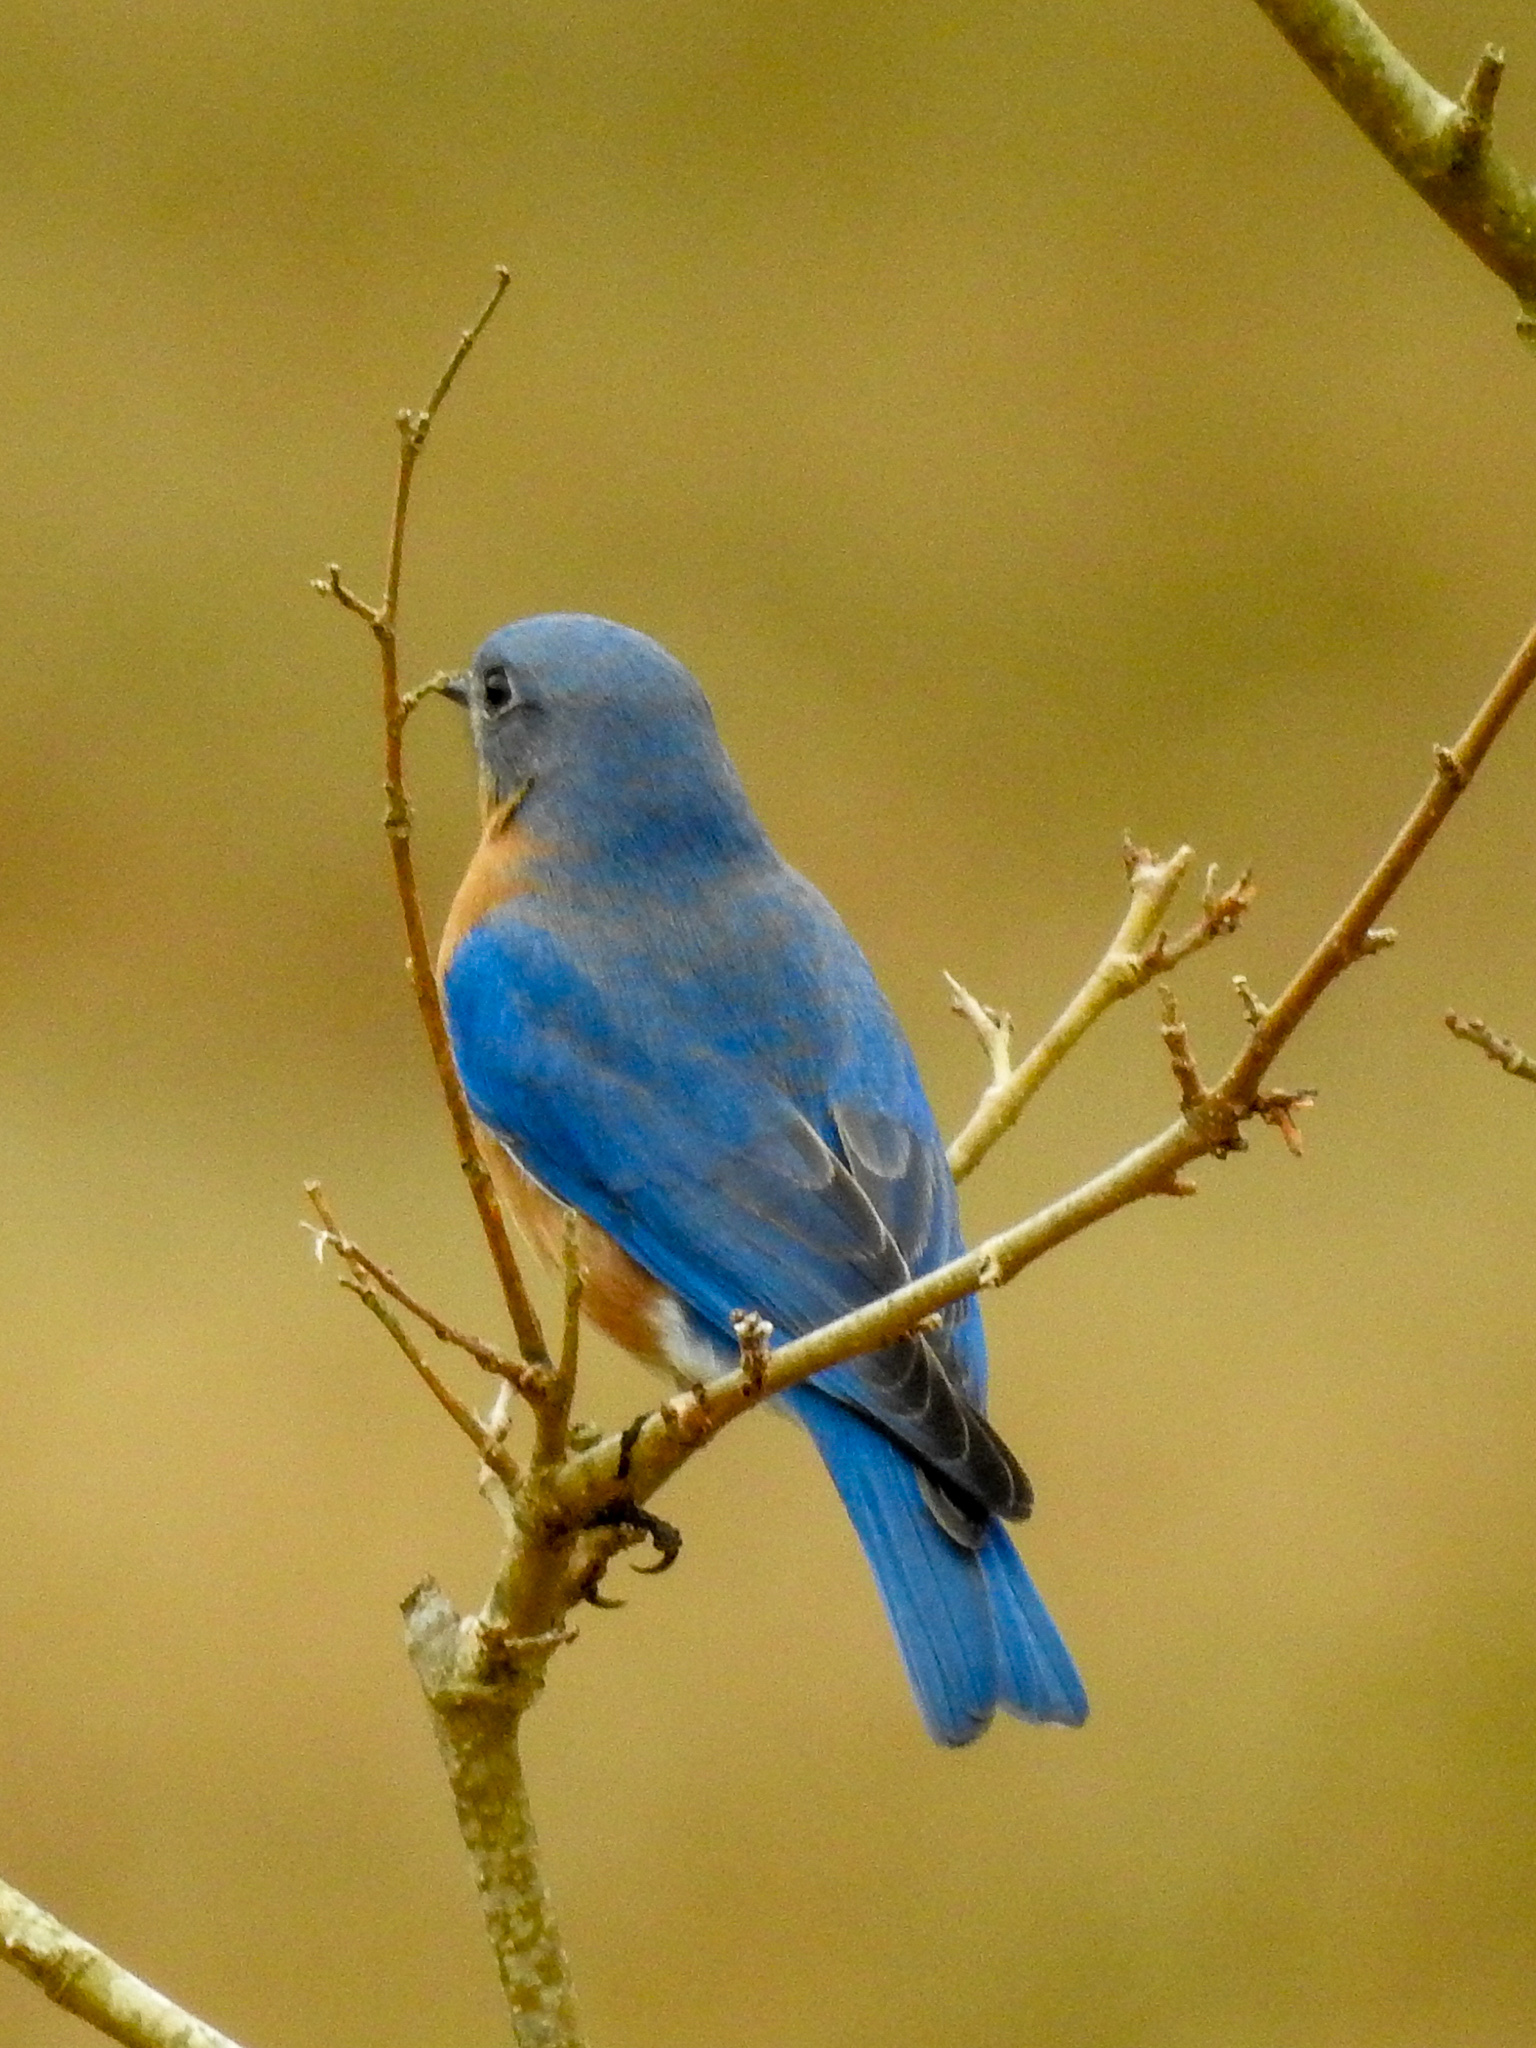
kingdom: Animalia
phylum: Chordata
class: Aves
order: Passeriformes
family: Turdidae
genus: Sialia
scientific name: Sialia sialis
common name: Eastern bluebird
